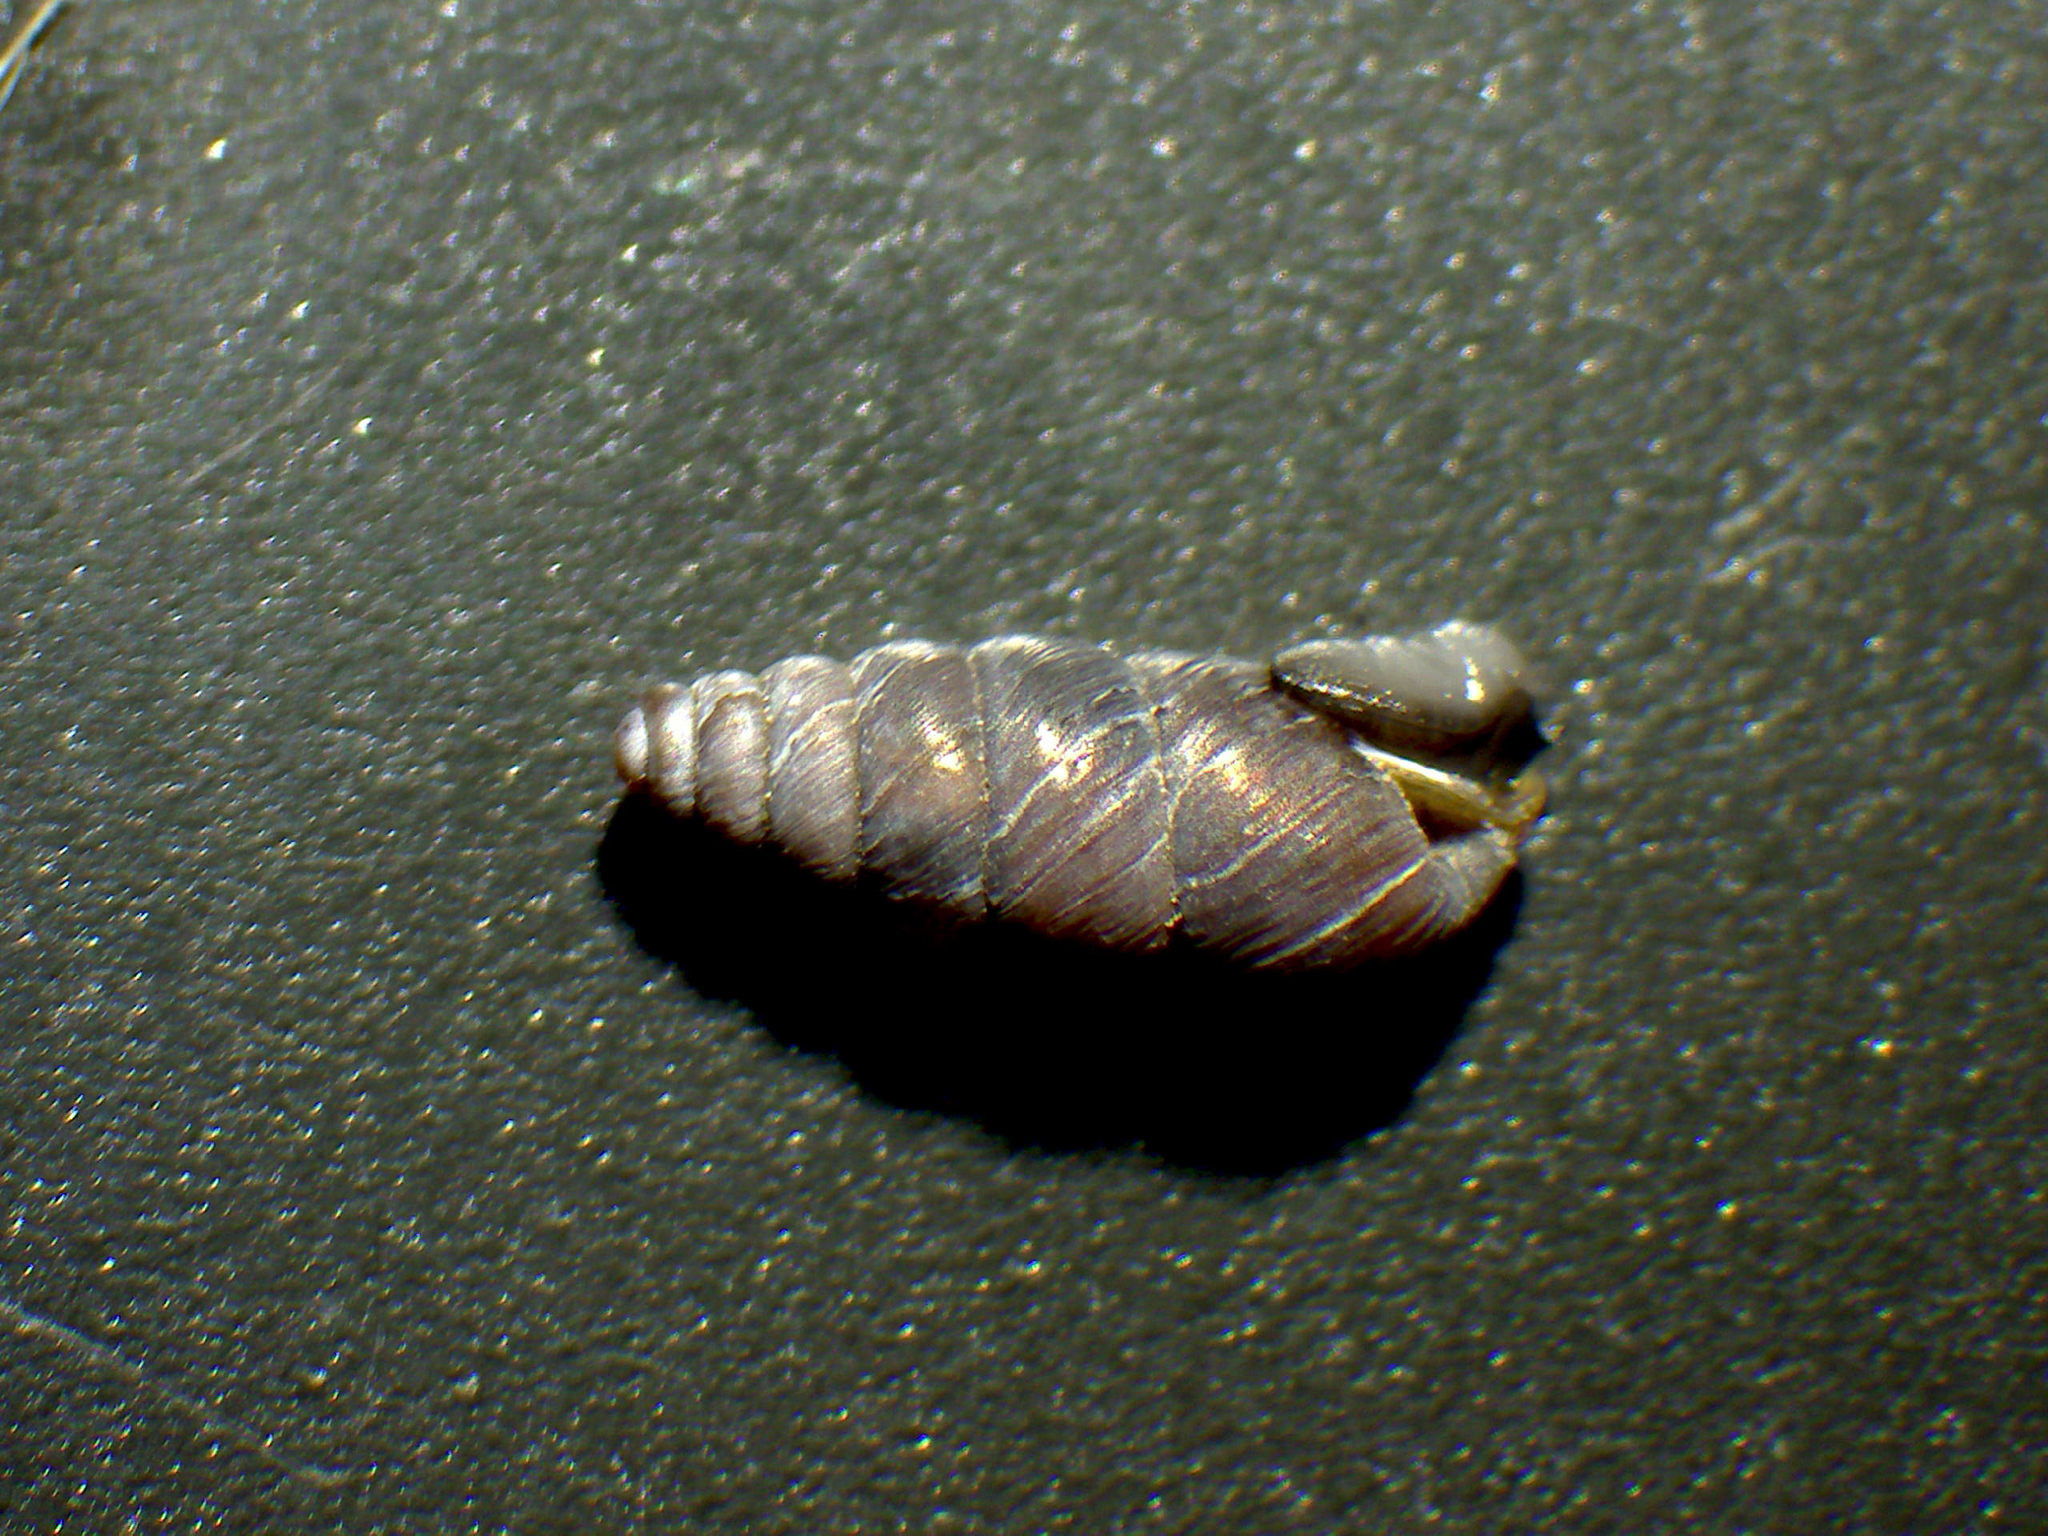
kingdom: Animalia
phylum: Mollusca
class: Gastropoda
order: Stylommatophora
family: Chondrinidae
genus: Chondrina
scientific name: Chondrina avenacea
